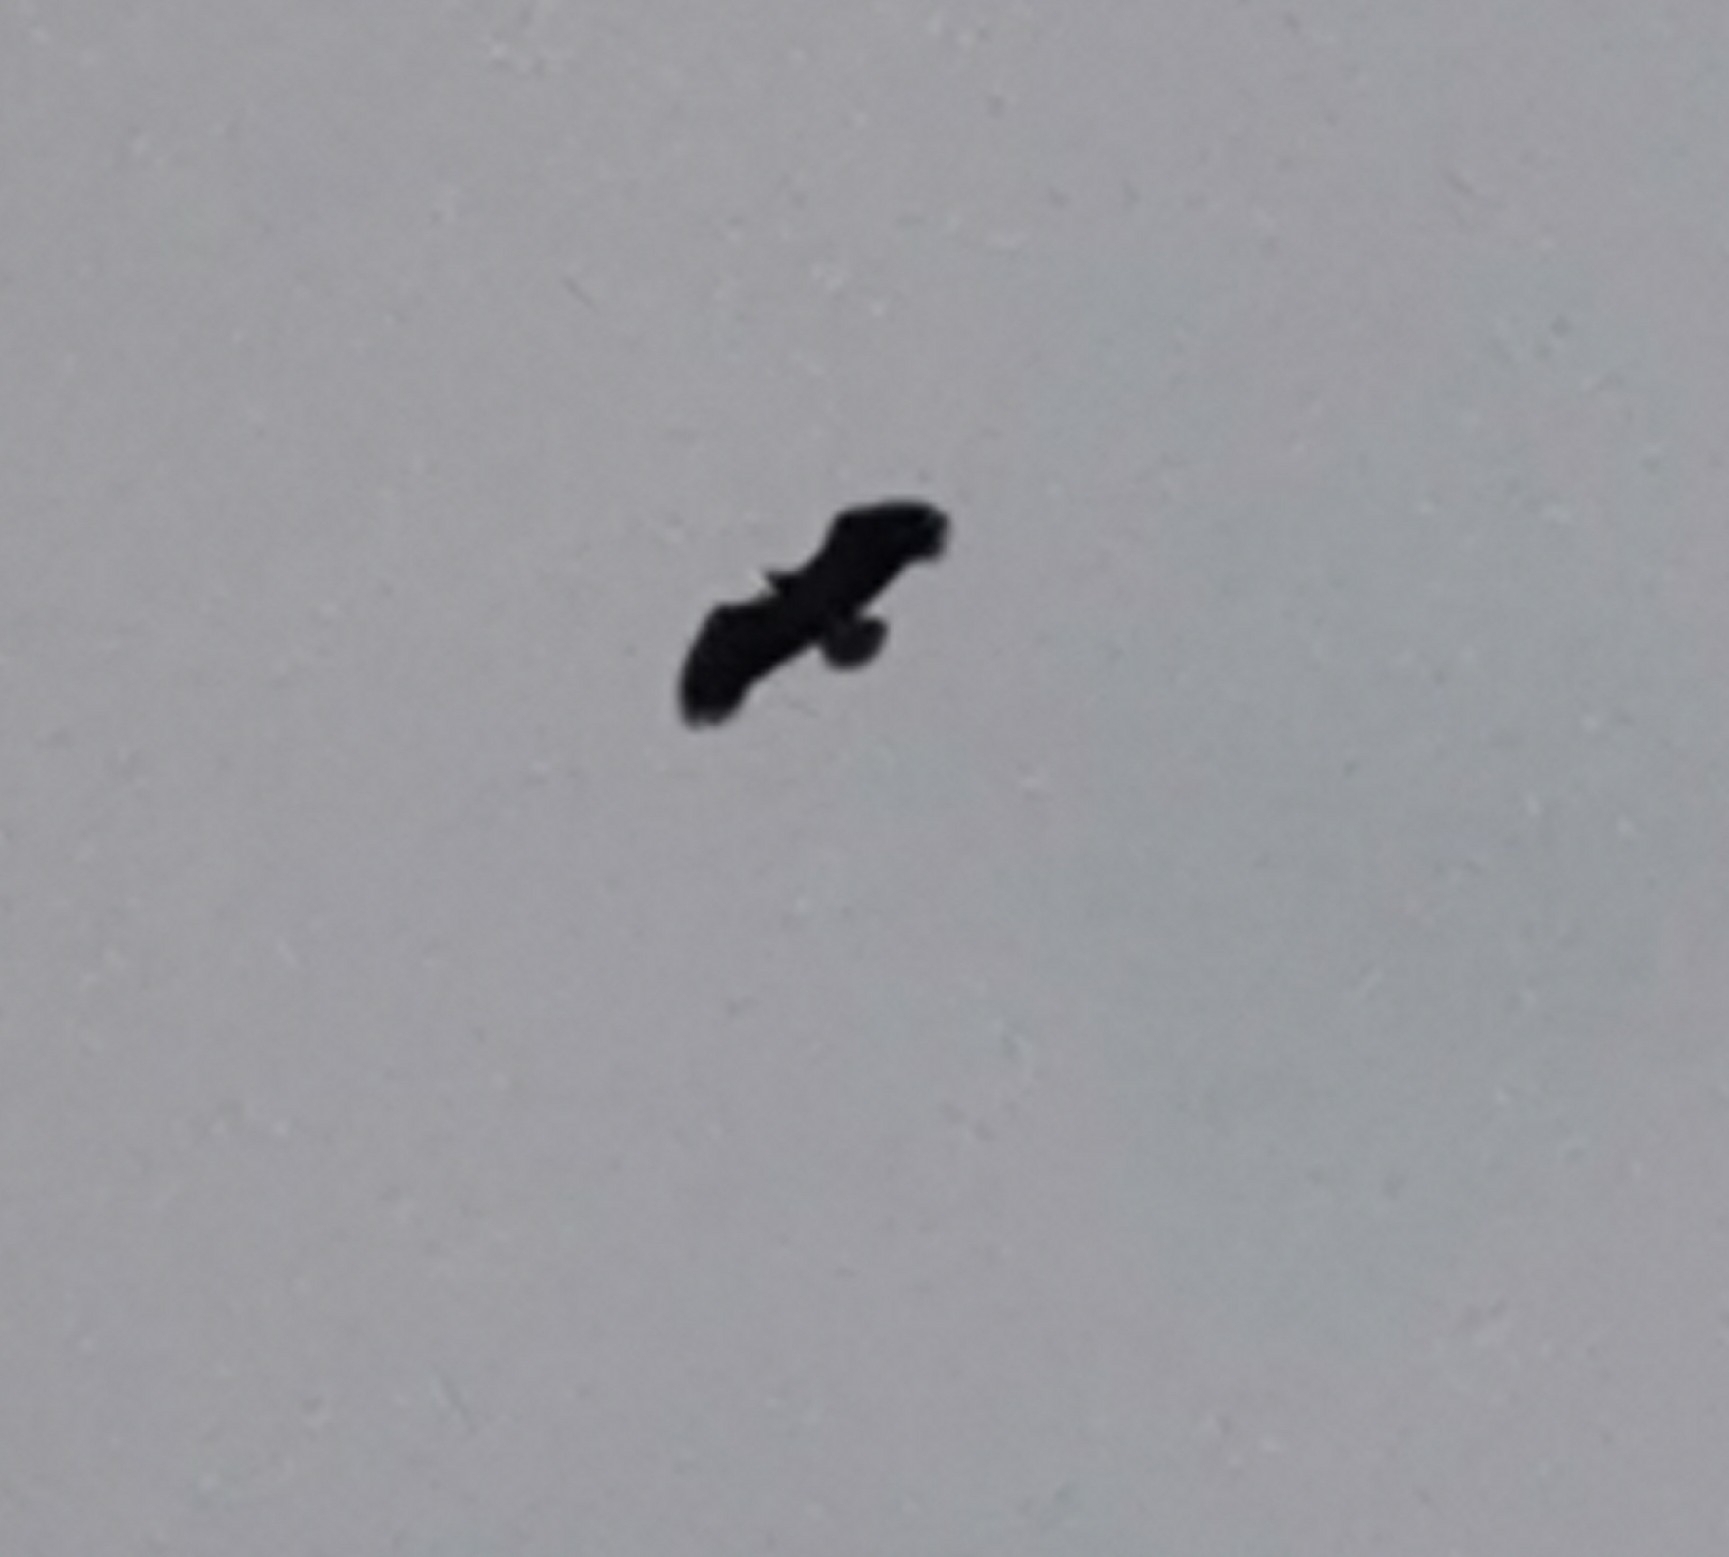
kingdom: Animalia
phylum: Chordata
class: Aves
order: Accipitriformes
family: Accipitridae
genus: Haliaeetus
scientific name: Haliaeetus albicilla
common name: White-tailed eagle
